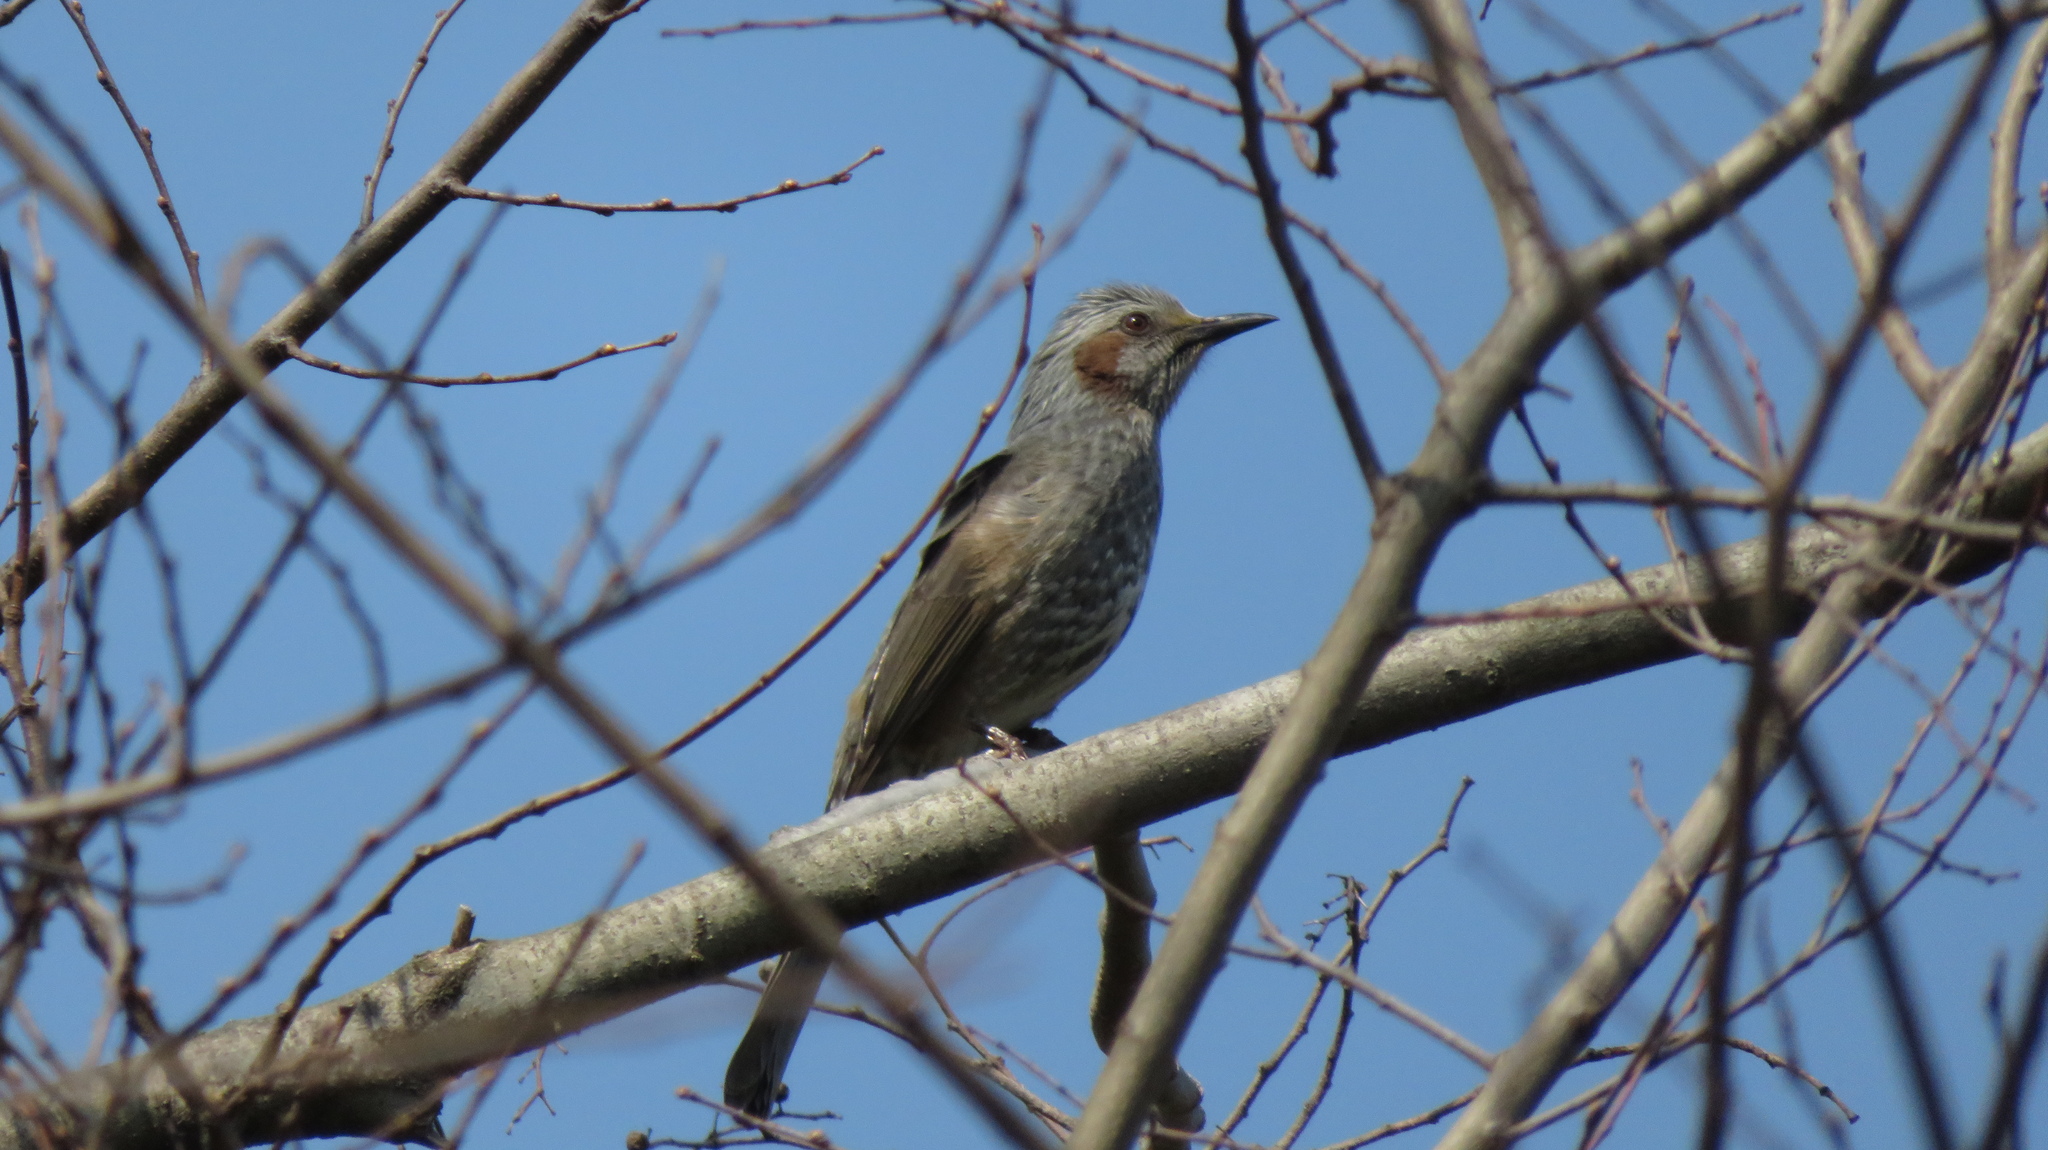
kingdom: Animalia
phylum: Chordata
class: Aves
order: Passeriformes
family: Pycnonotidae
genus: Hypsipetes
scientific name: Hypsipetes amaurotis
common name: Brown-eared bulbul
